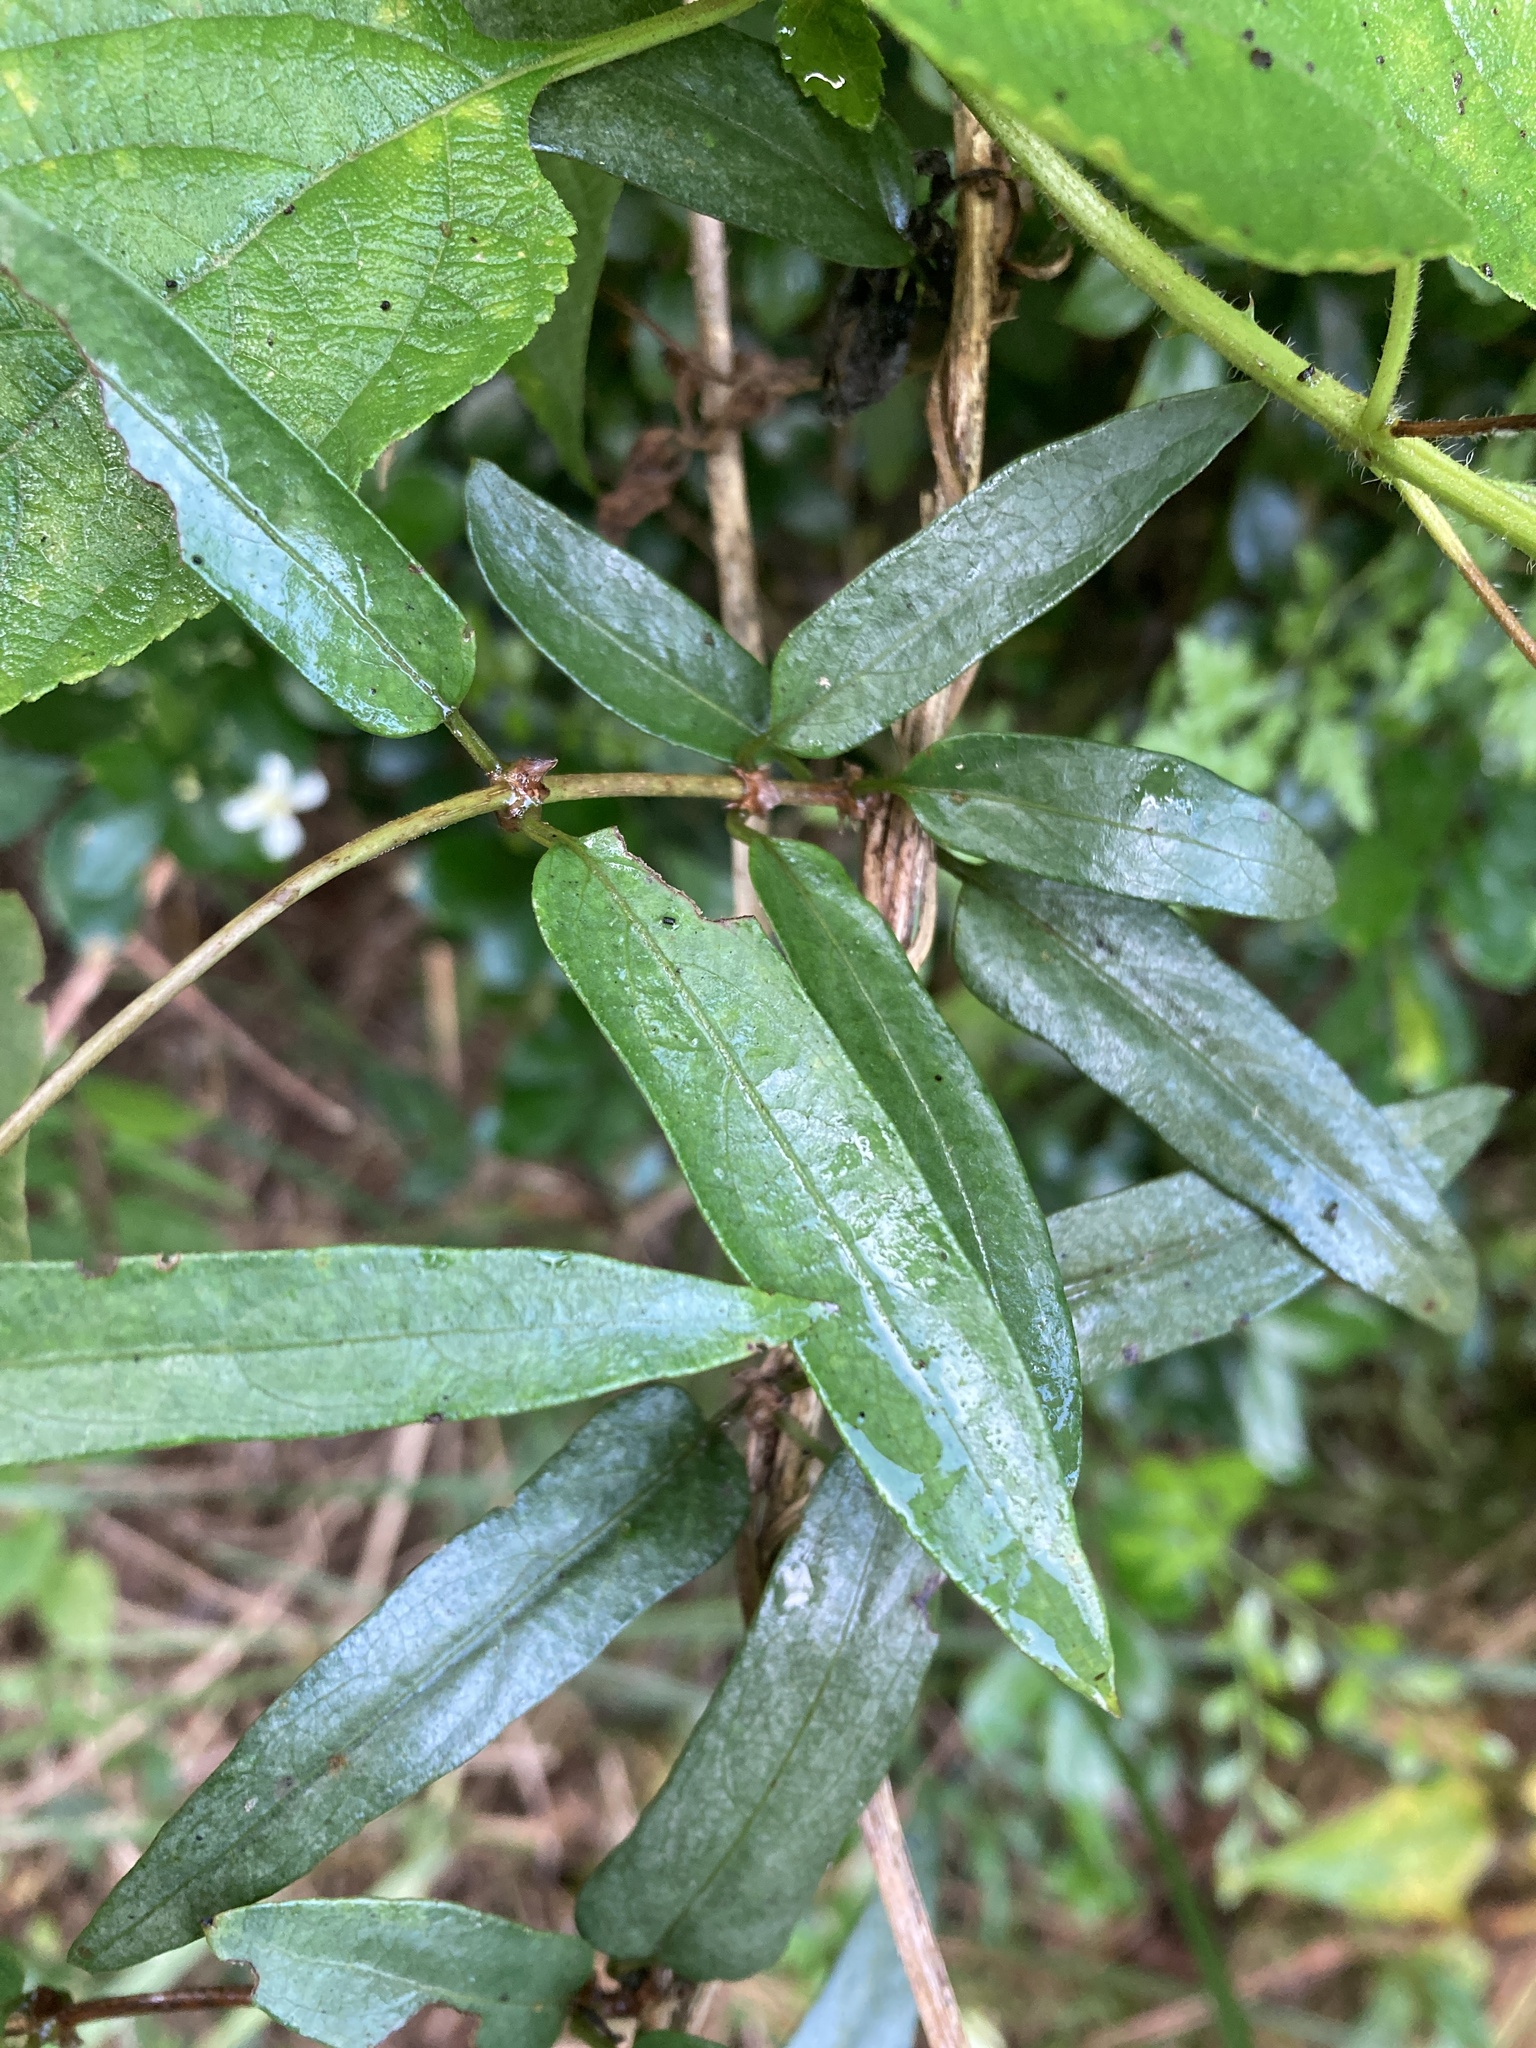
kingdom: Plantae
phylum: Tracheophyta
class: Magnoliopsida
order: Gentianales
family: Rubiaceae
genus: Paederia
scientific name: Paederia foetida
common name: Stinkvine
